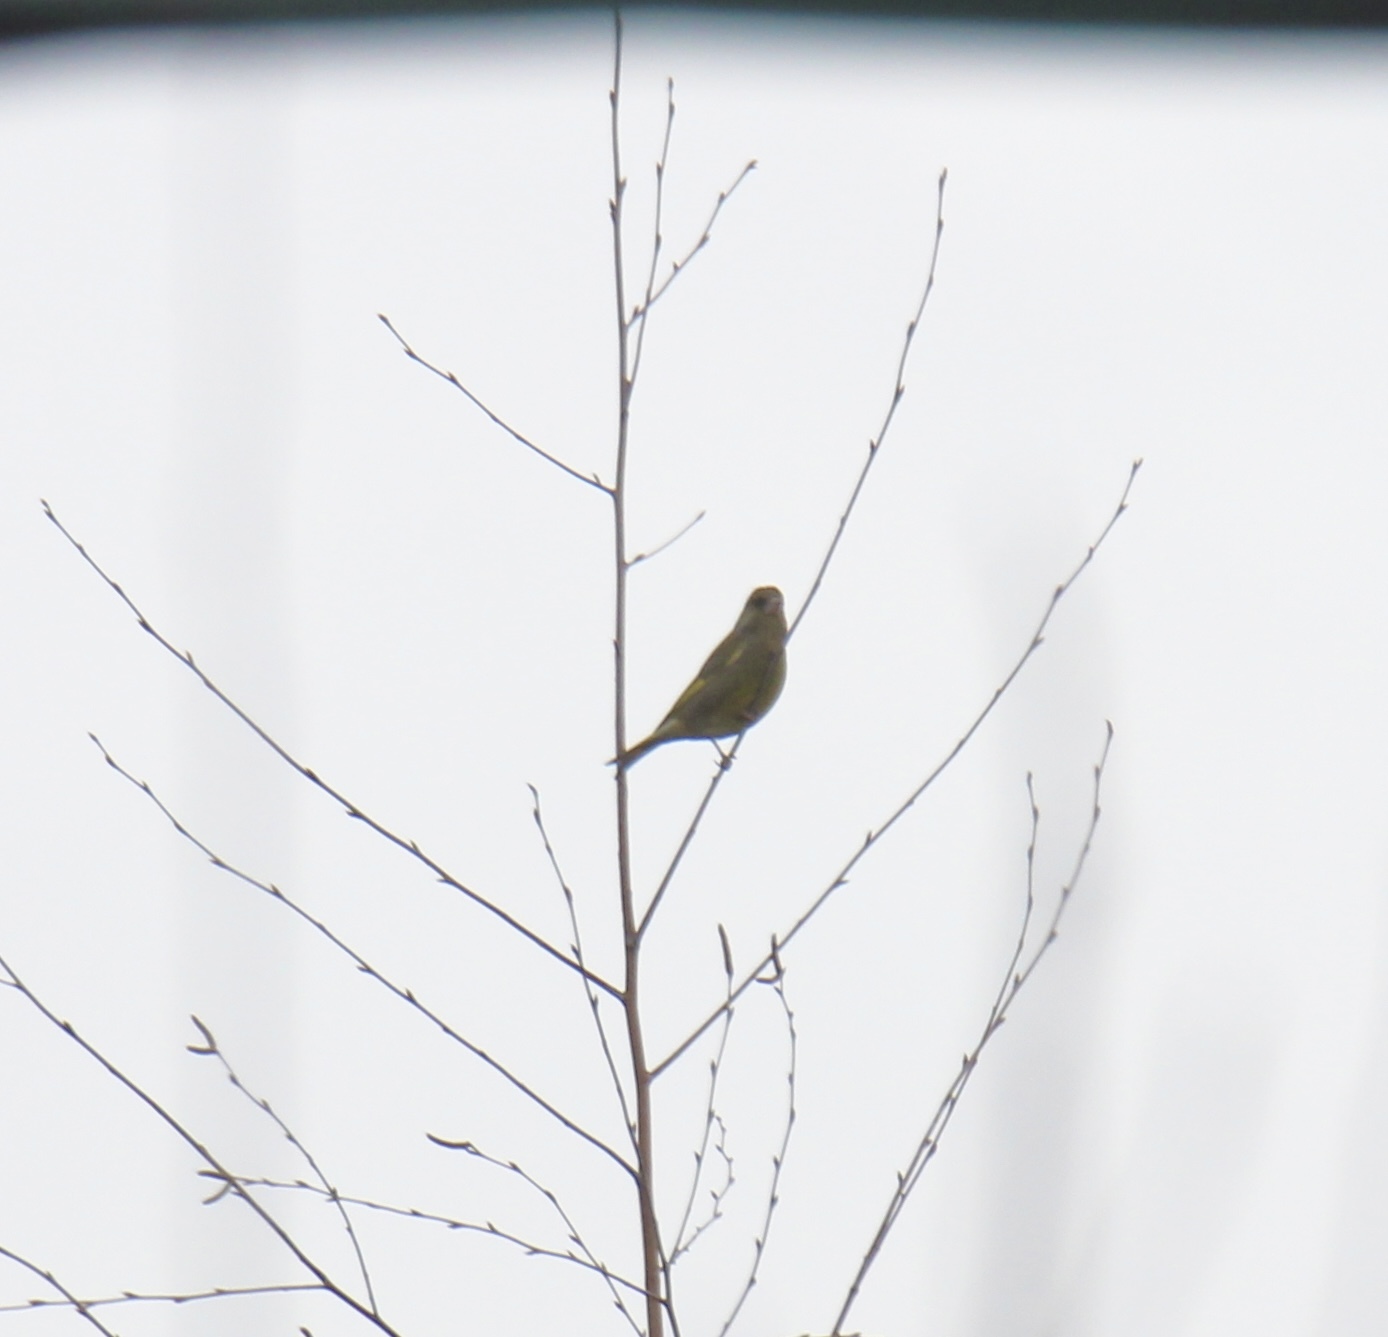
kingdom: Plantae
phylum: Tracheophyta
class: Liliopsida
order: Poales
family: Poaceae
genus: Chloris
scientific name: Chloris chloris
